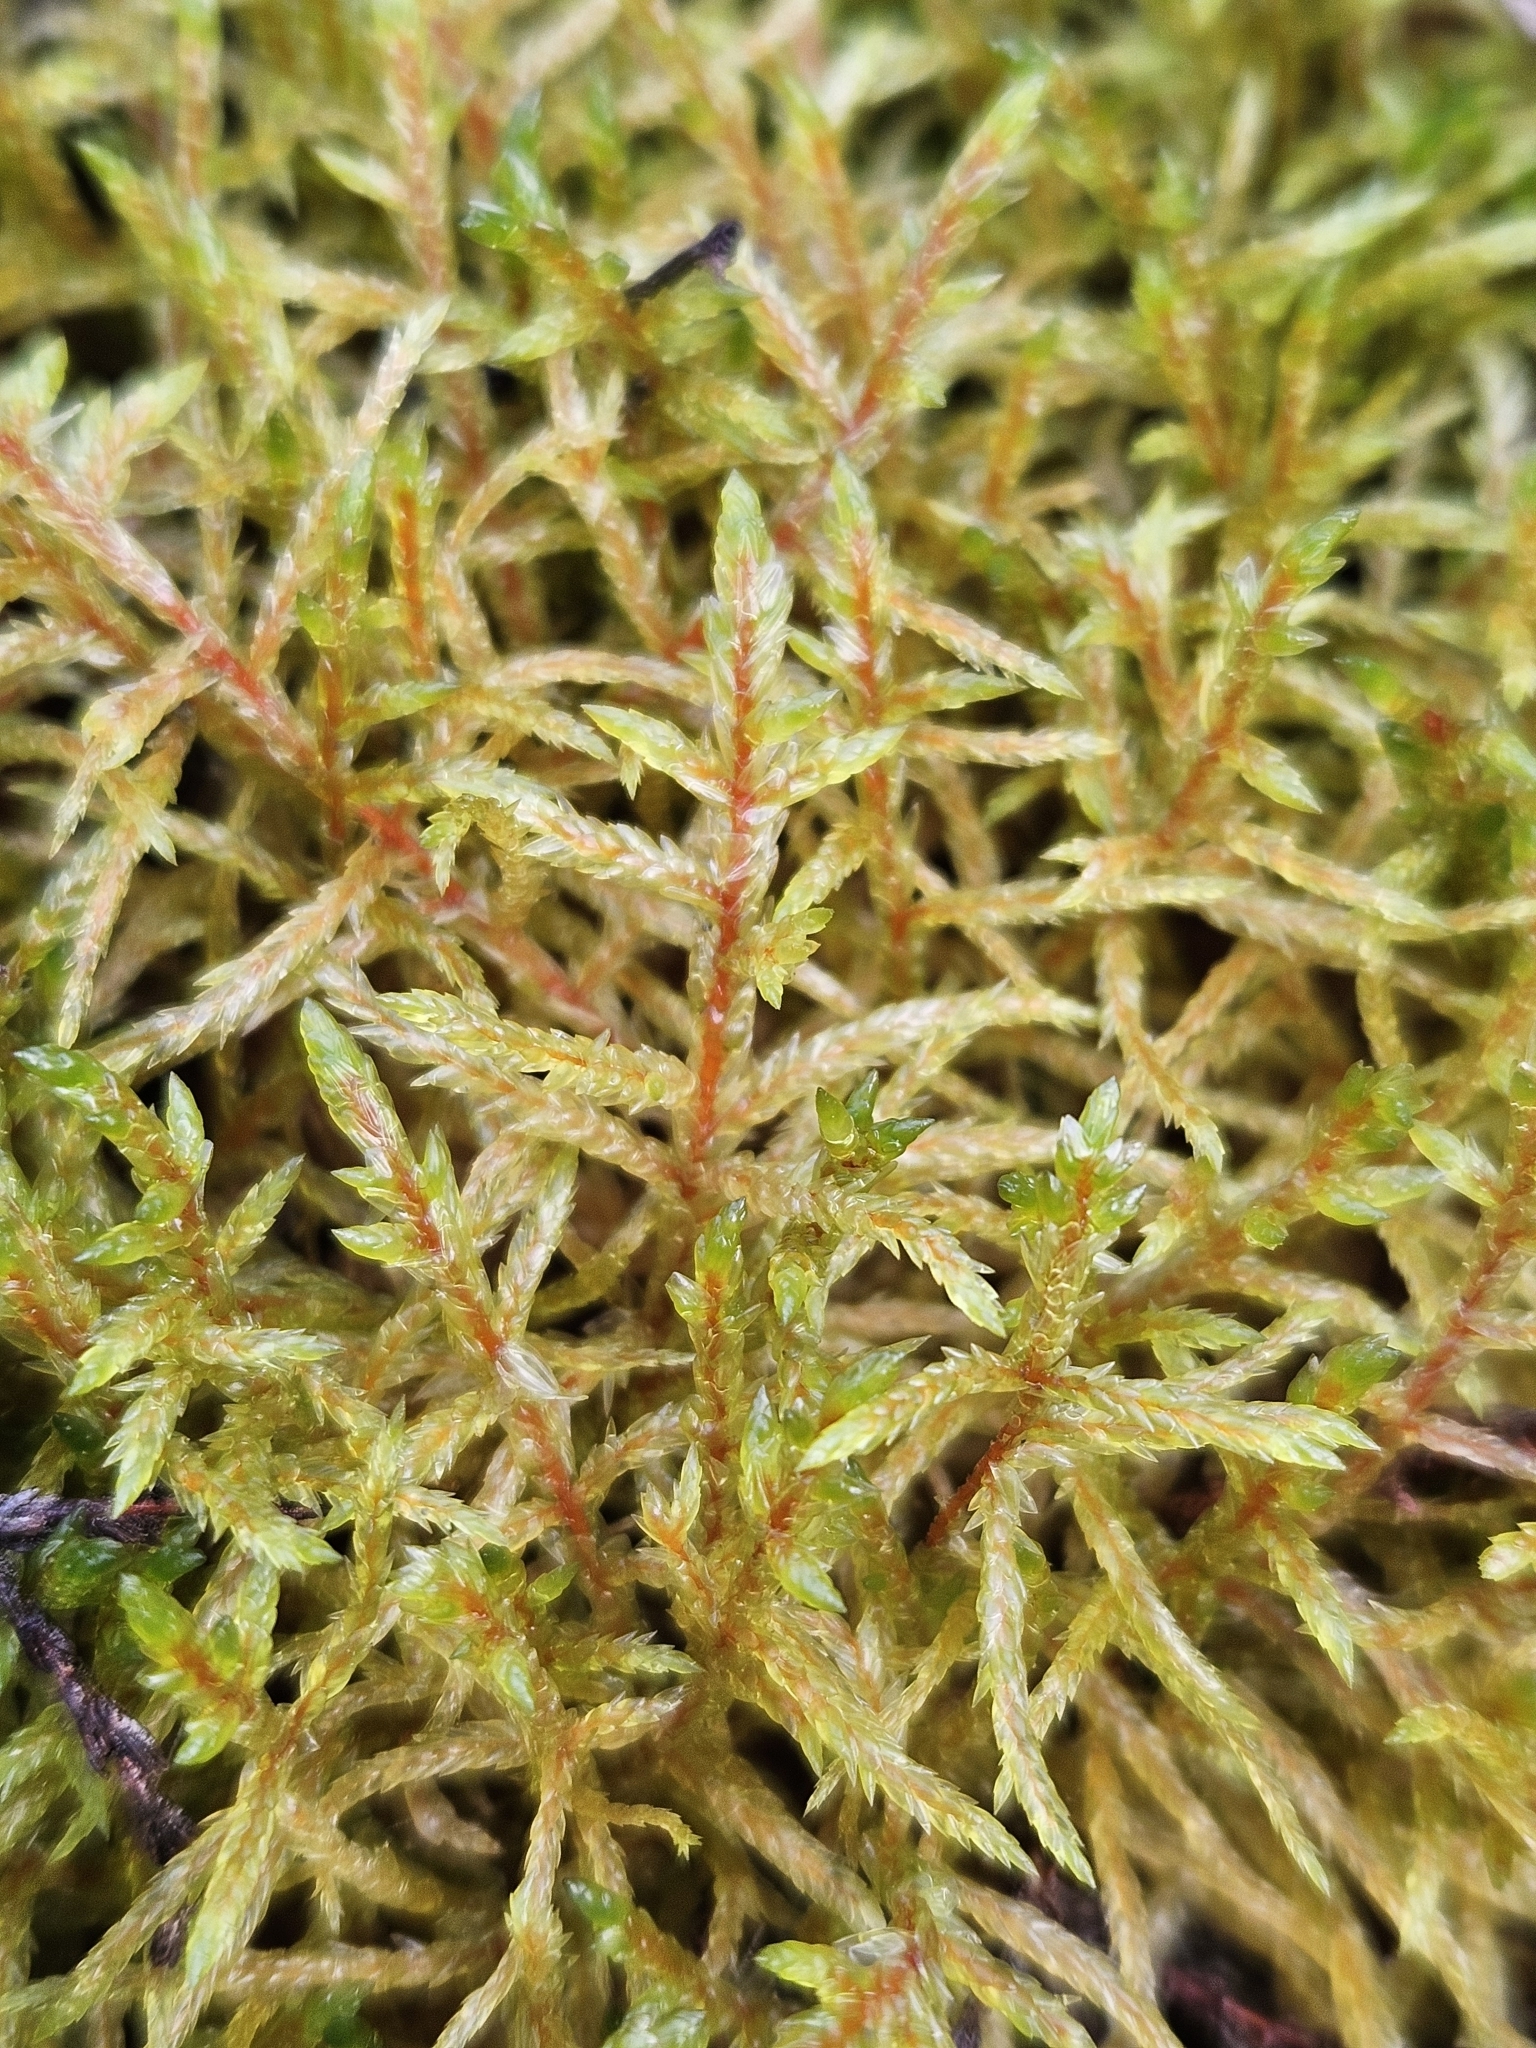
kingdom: Plantae
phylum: Bryophyta
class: Bryopsida
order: Hypnales
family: Hylocomiaceae
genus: Pleurozium
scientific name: Pleurozium schreberi
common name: Red-stemmed feather moss
